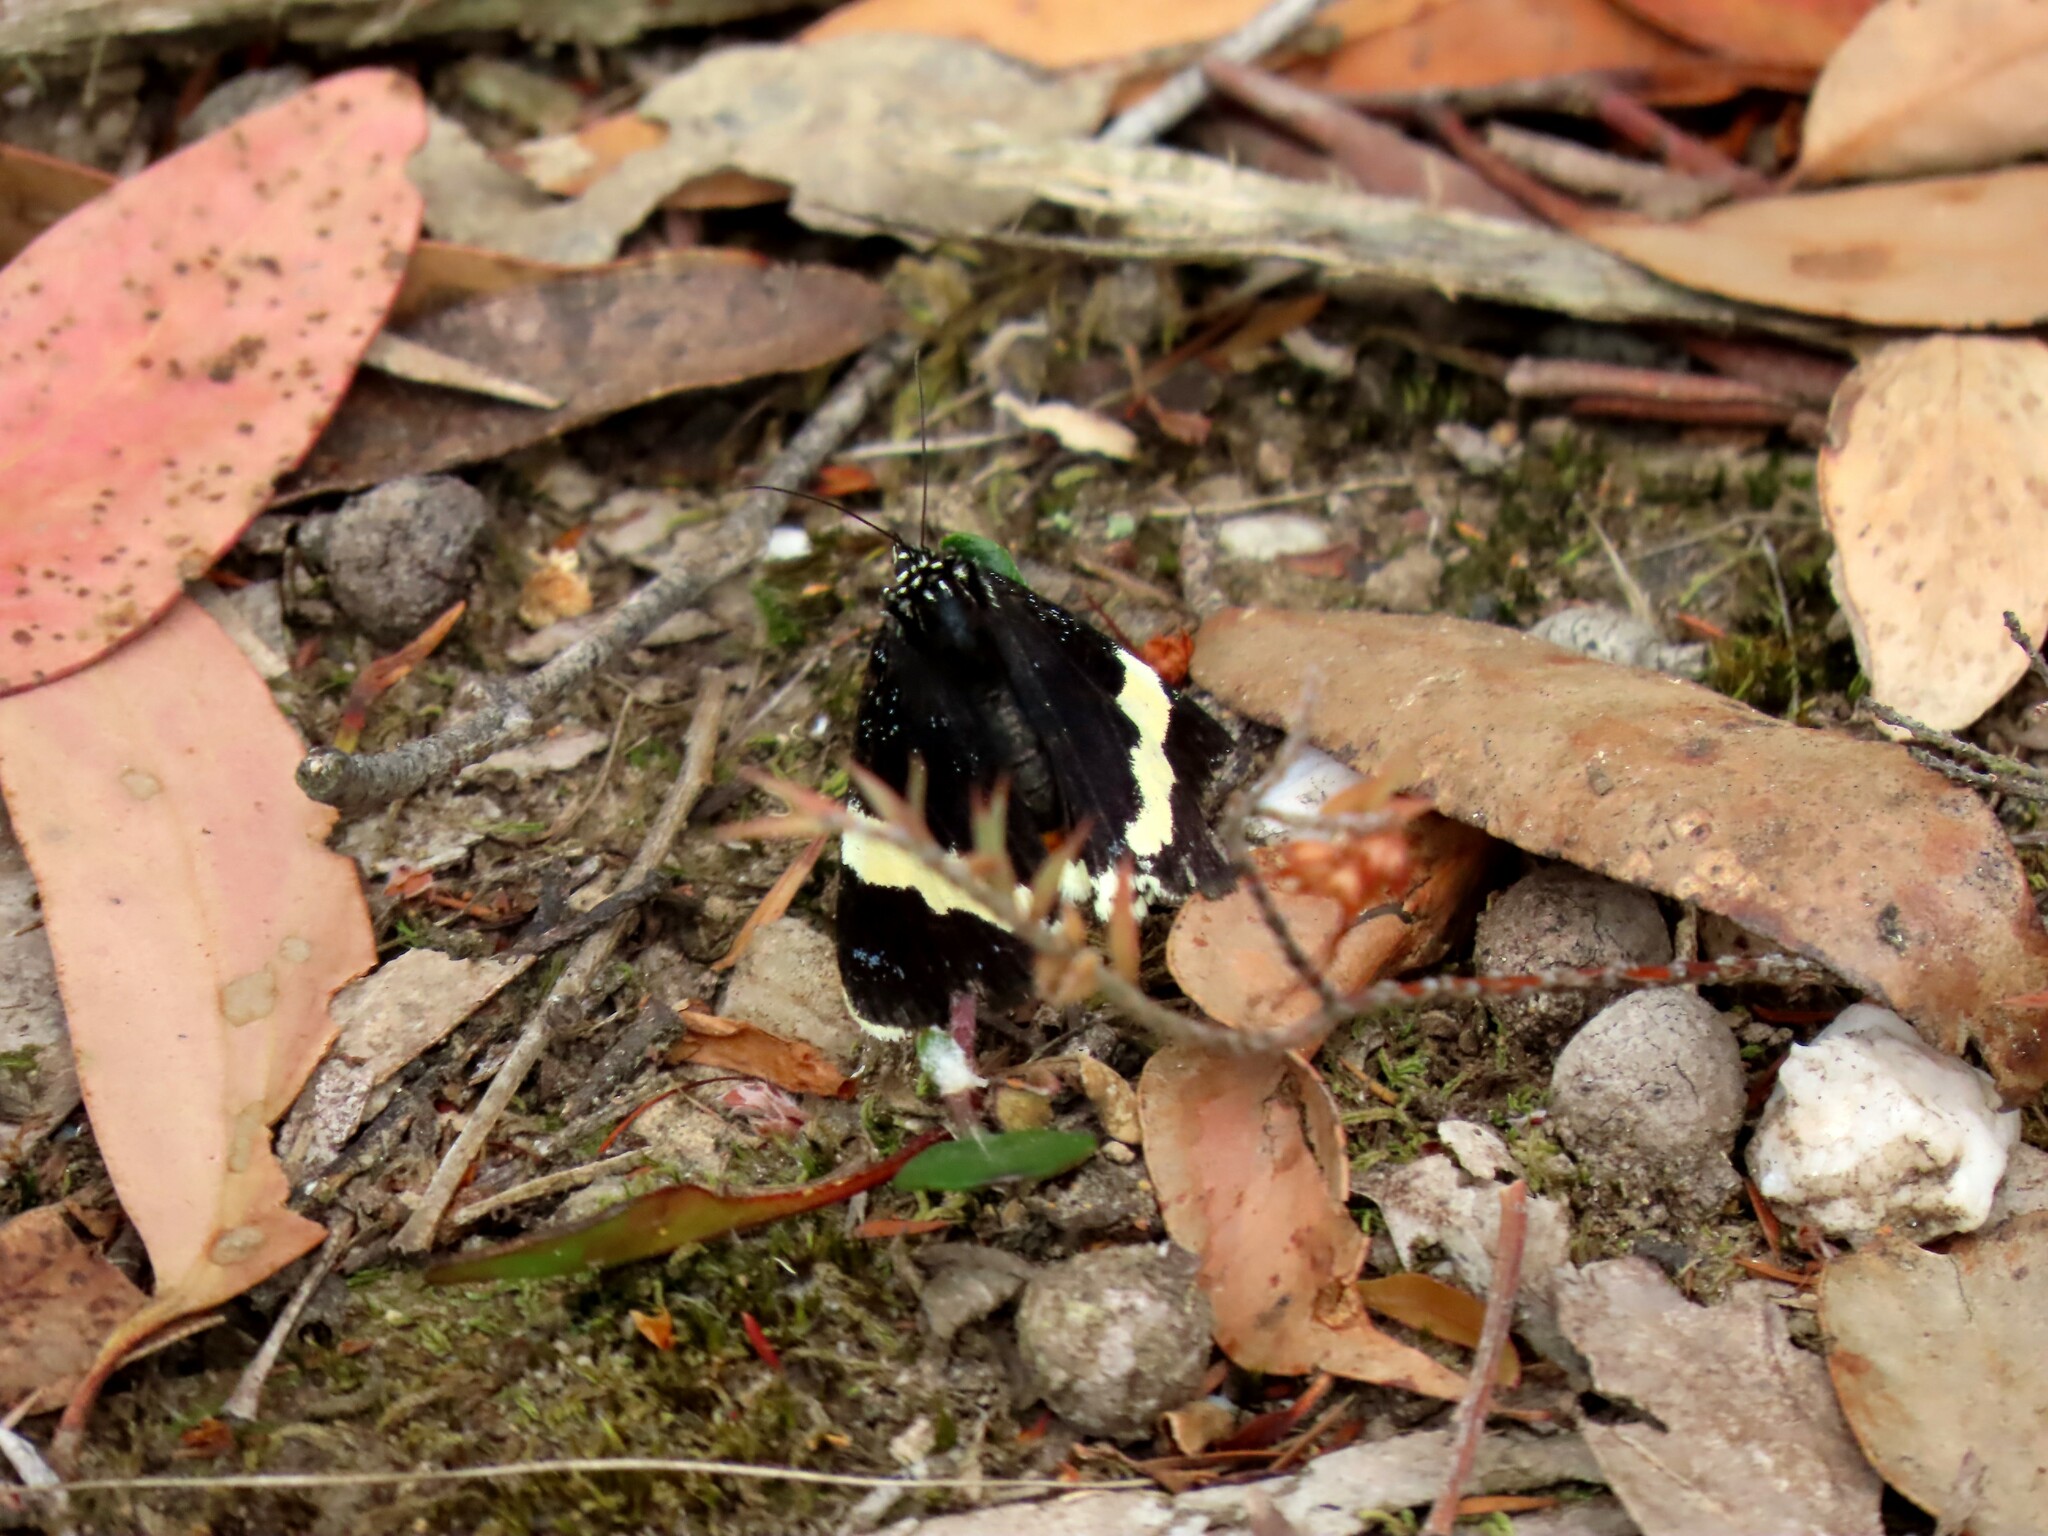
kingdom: Animalia
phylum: Arthropoda
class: Insecta
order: Lepidoptera
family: Noctuidae
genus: Eutrichopidia
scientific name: Eutrichopidia latinus
